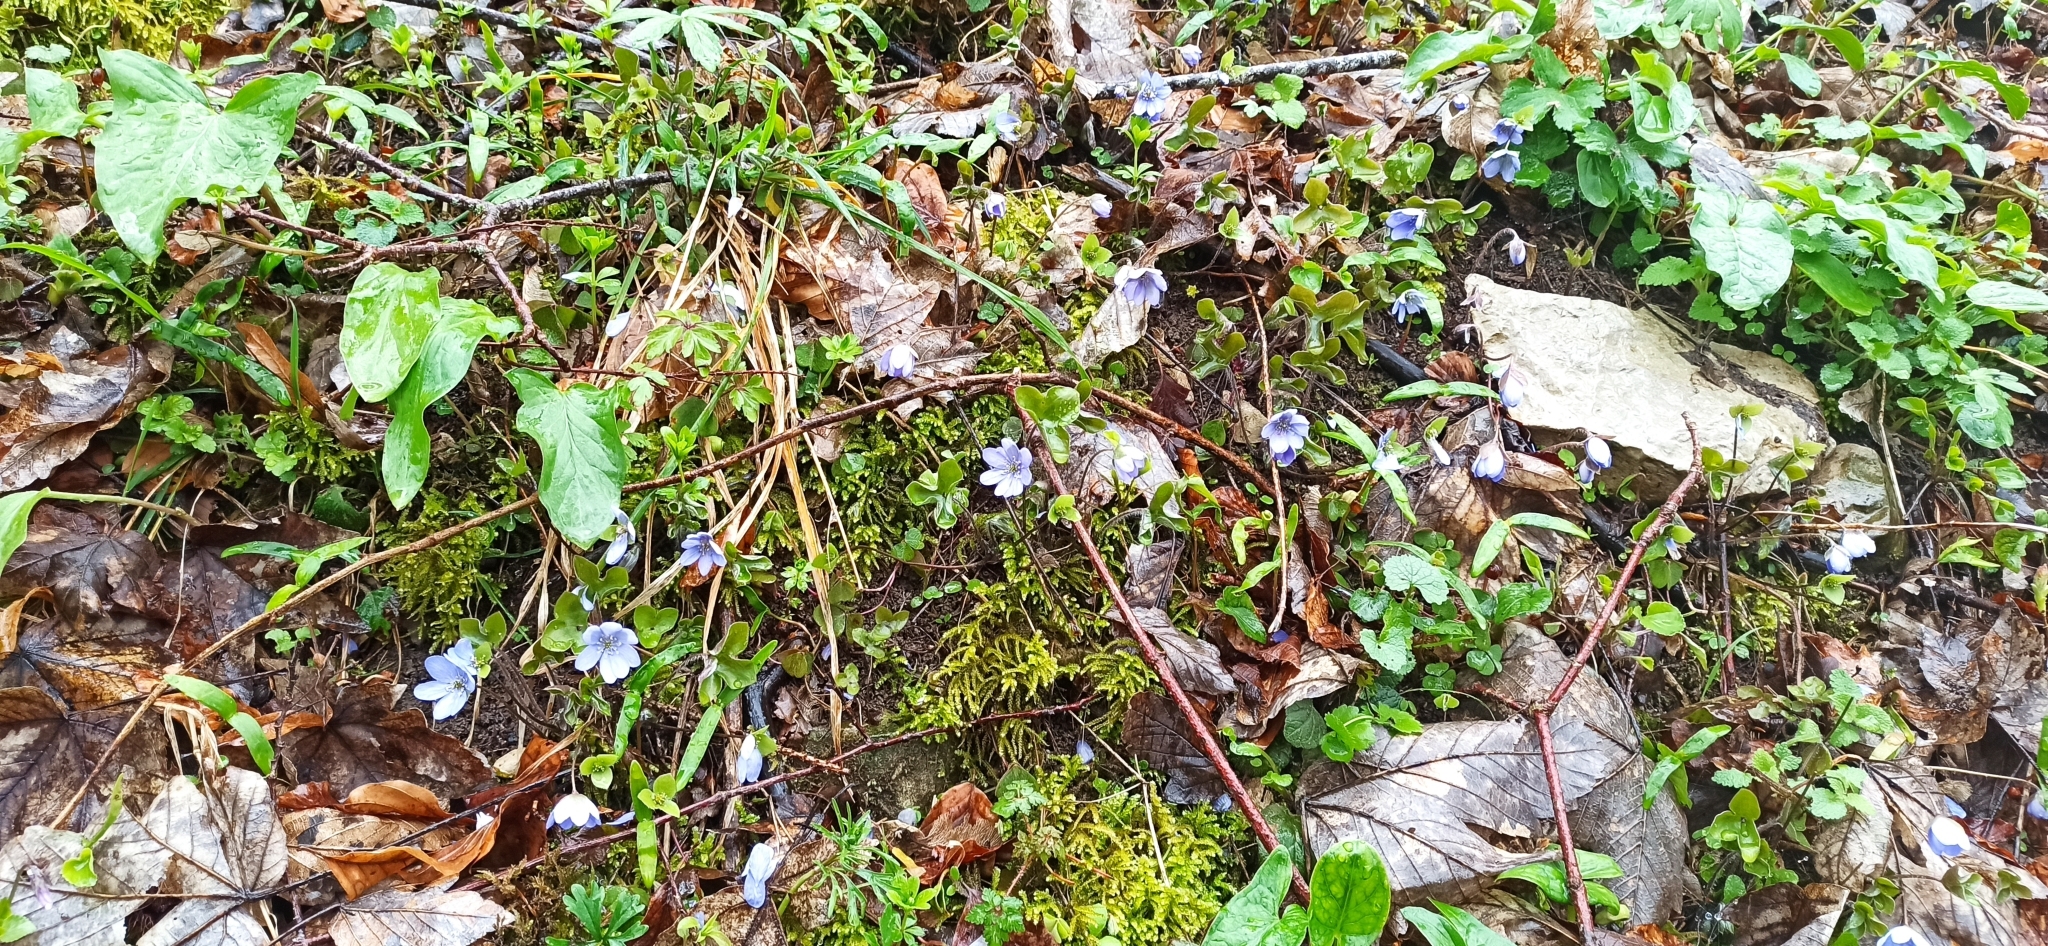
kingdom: Plantae
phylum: Tracheophyta
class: Magnoliopsida
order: Ranunculales
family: Ranunculaceae
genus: Hepatica
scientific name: Hepatica nobilis
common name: Liverleaf
